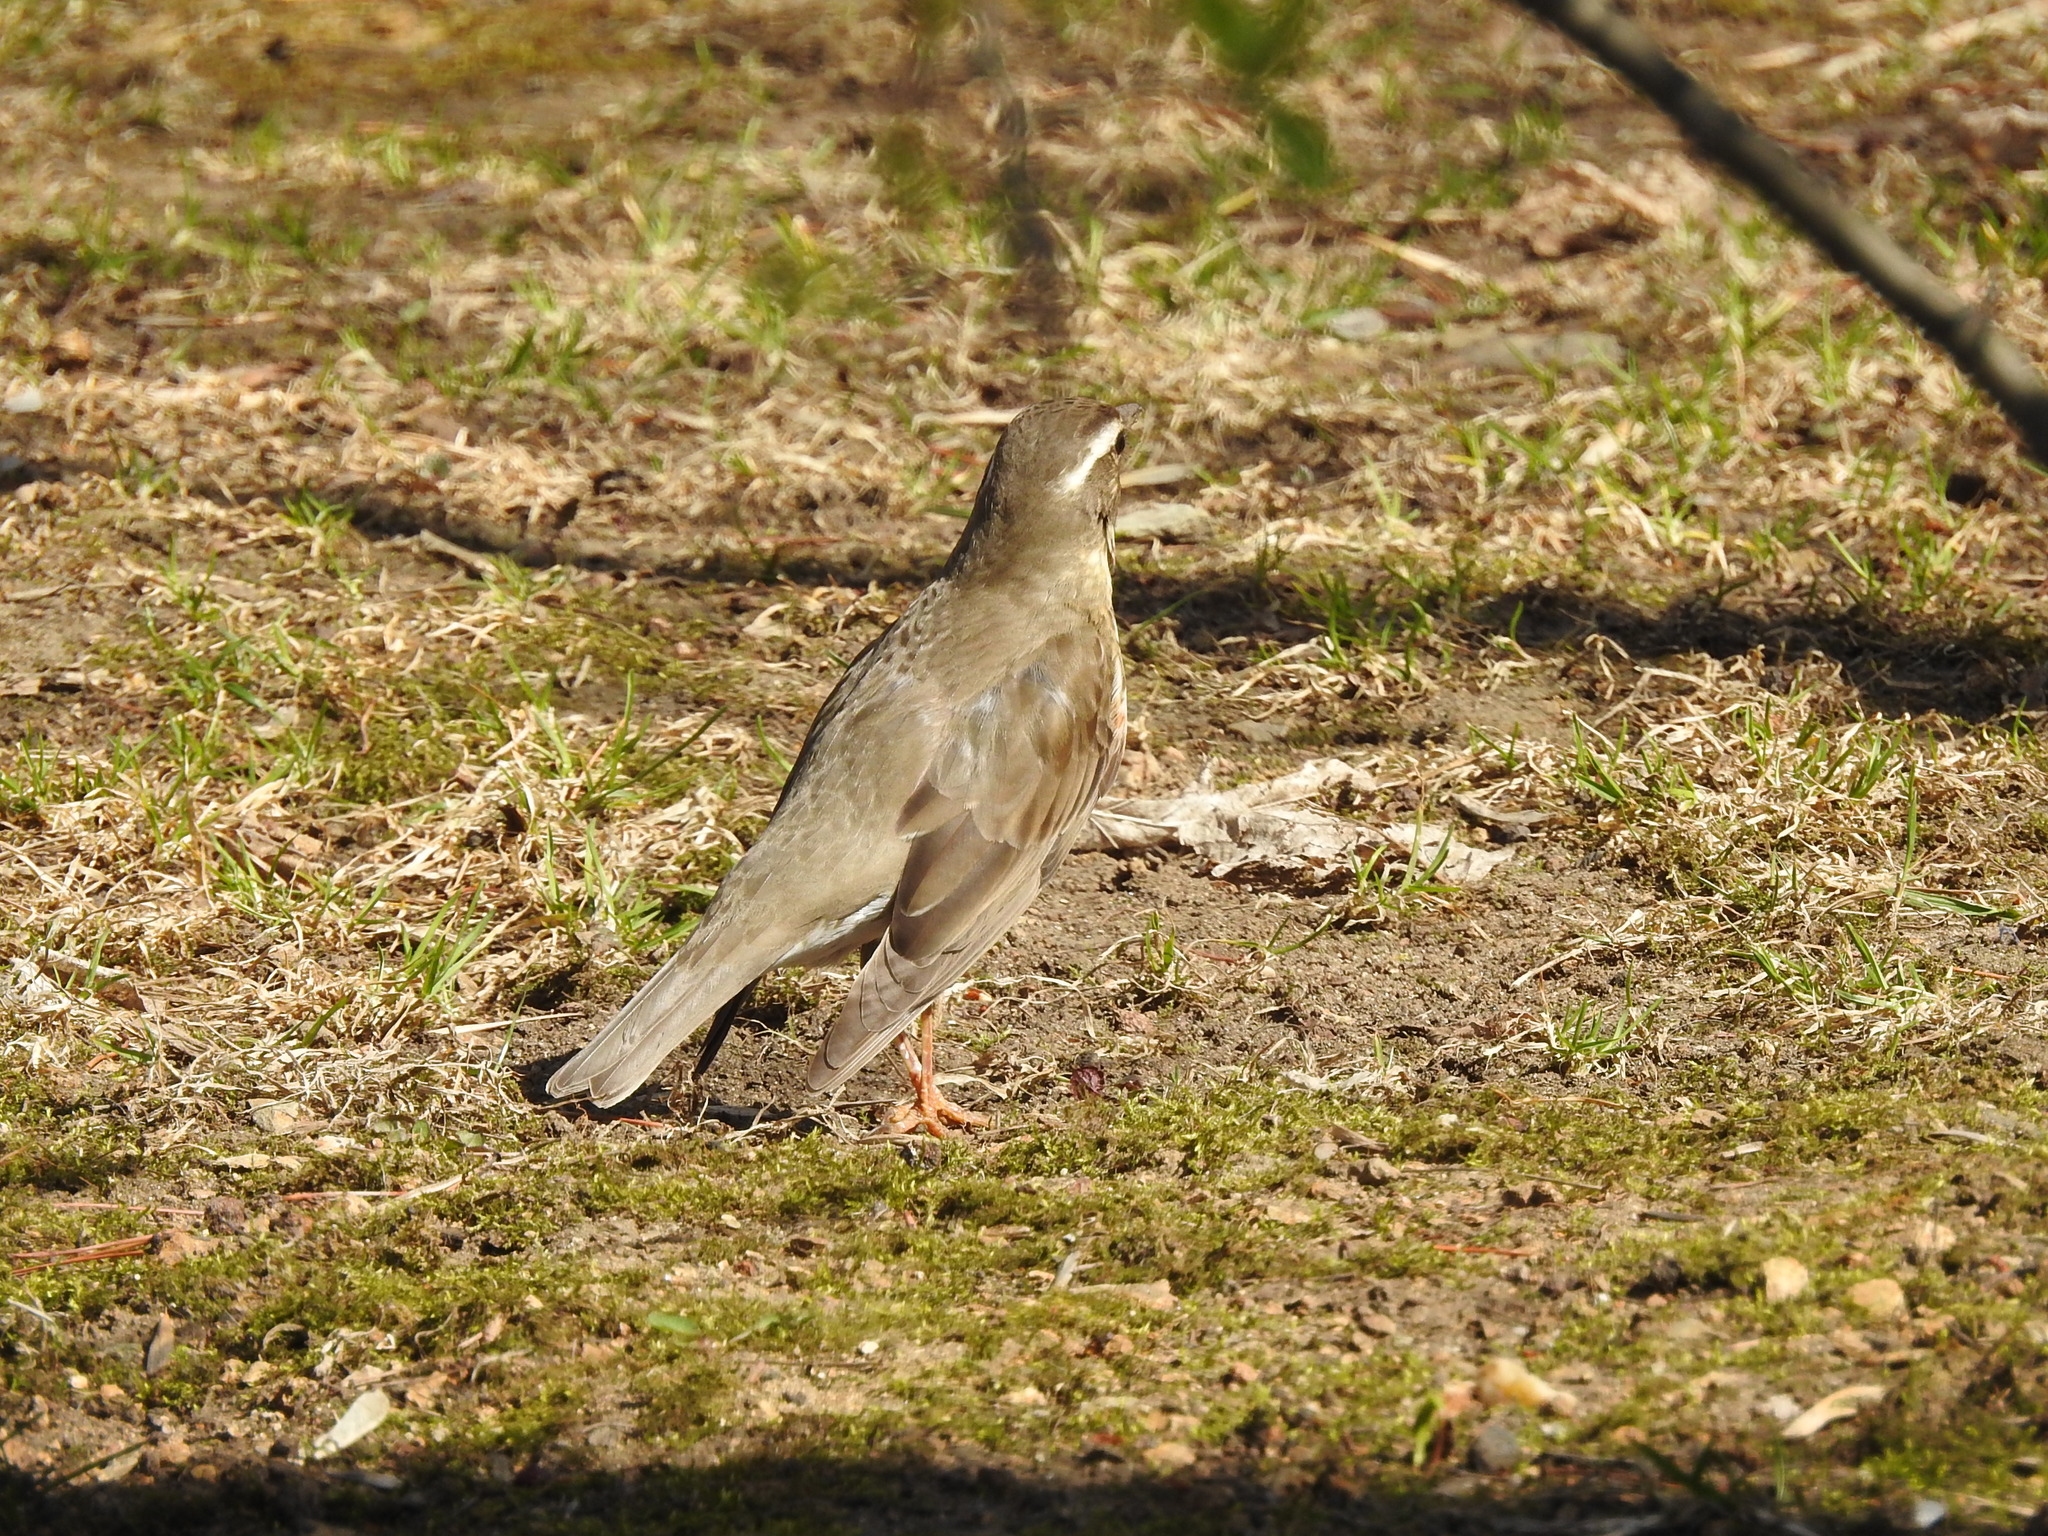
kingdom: Animalia
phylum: Chordata
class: Aves
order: Passeriformes
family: Turdidae
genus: Turdus
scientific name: Turdus iliacus
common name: Redwing
